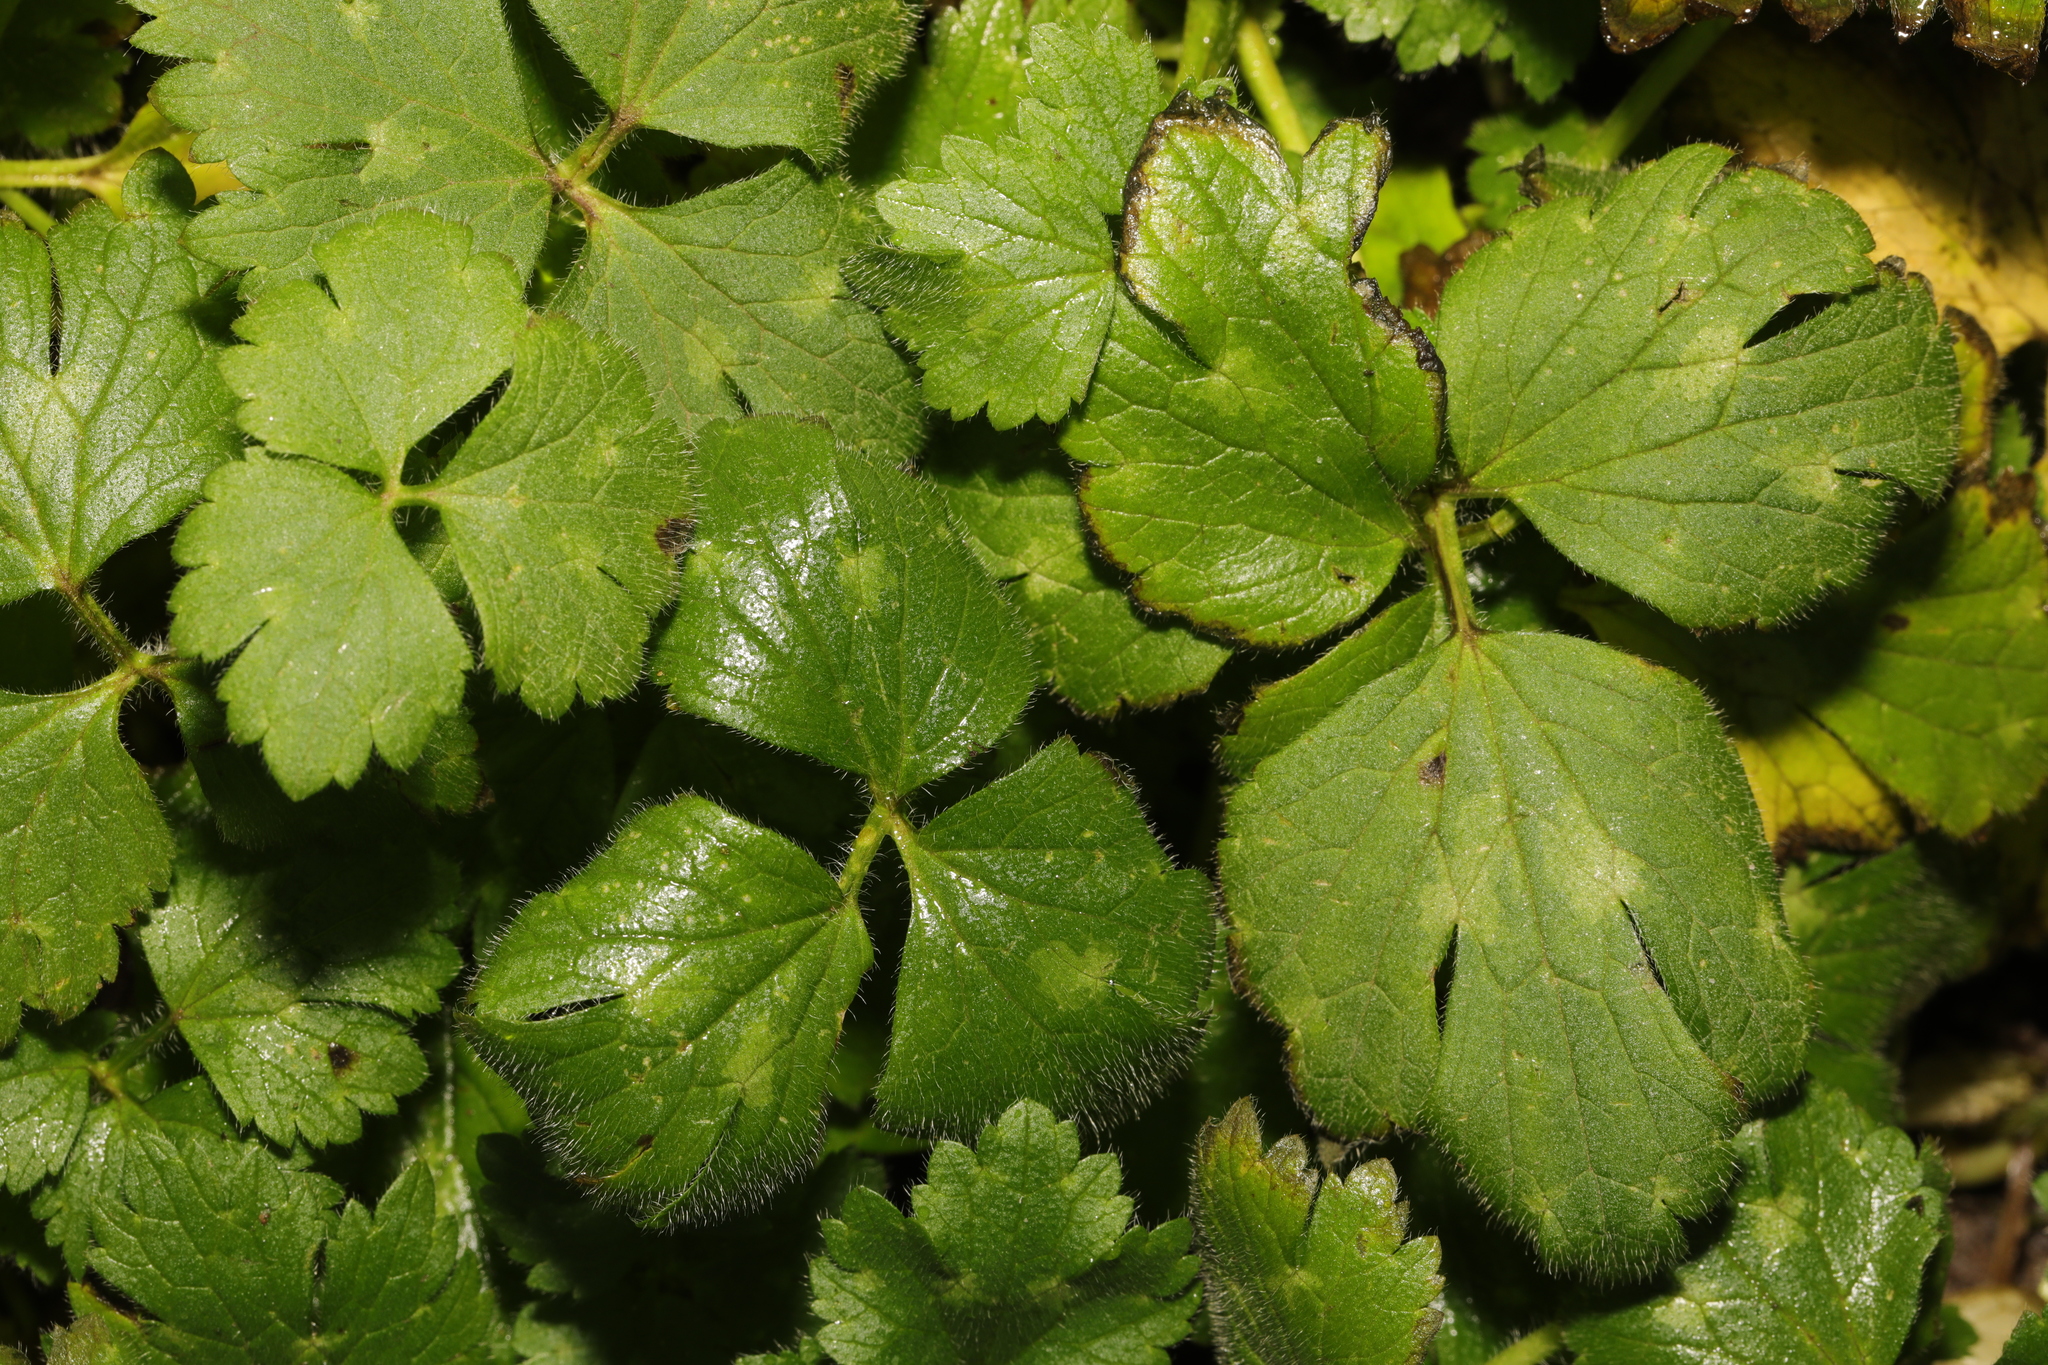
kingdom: Plantae
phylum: Tracheophyta
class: Magnoliopsida
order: Ranunculales
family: Ranunculaceae
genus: Ranunculus
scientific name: Ranunculus repens
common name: Creeping buttercup
